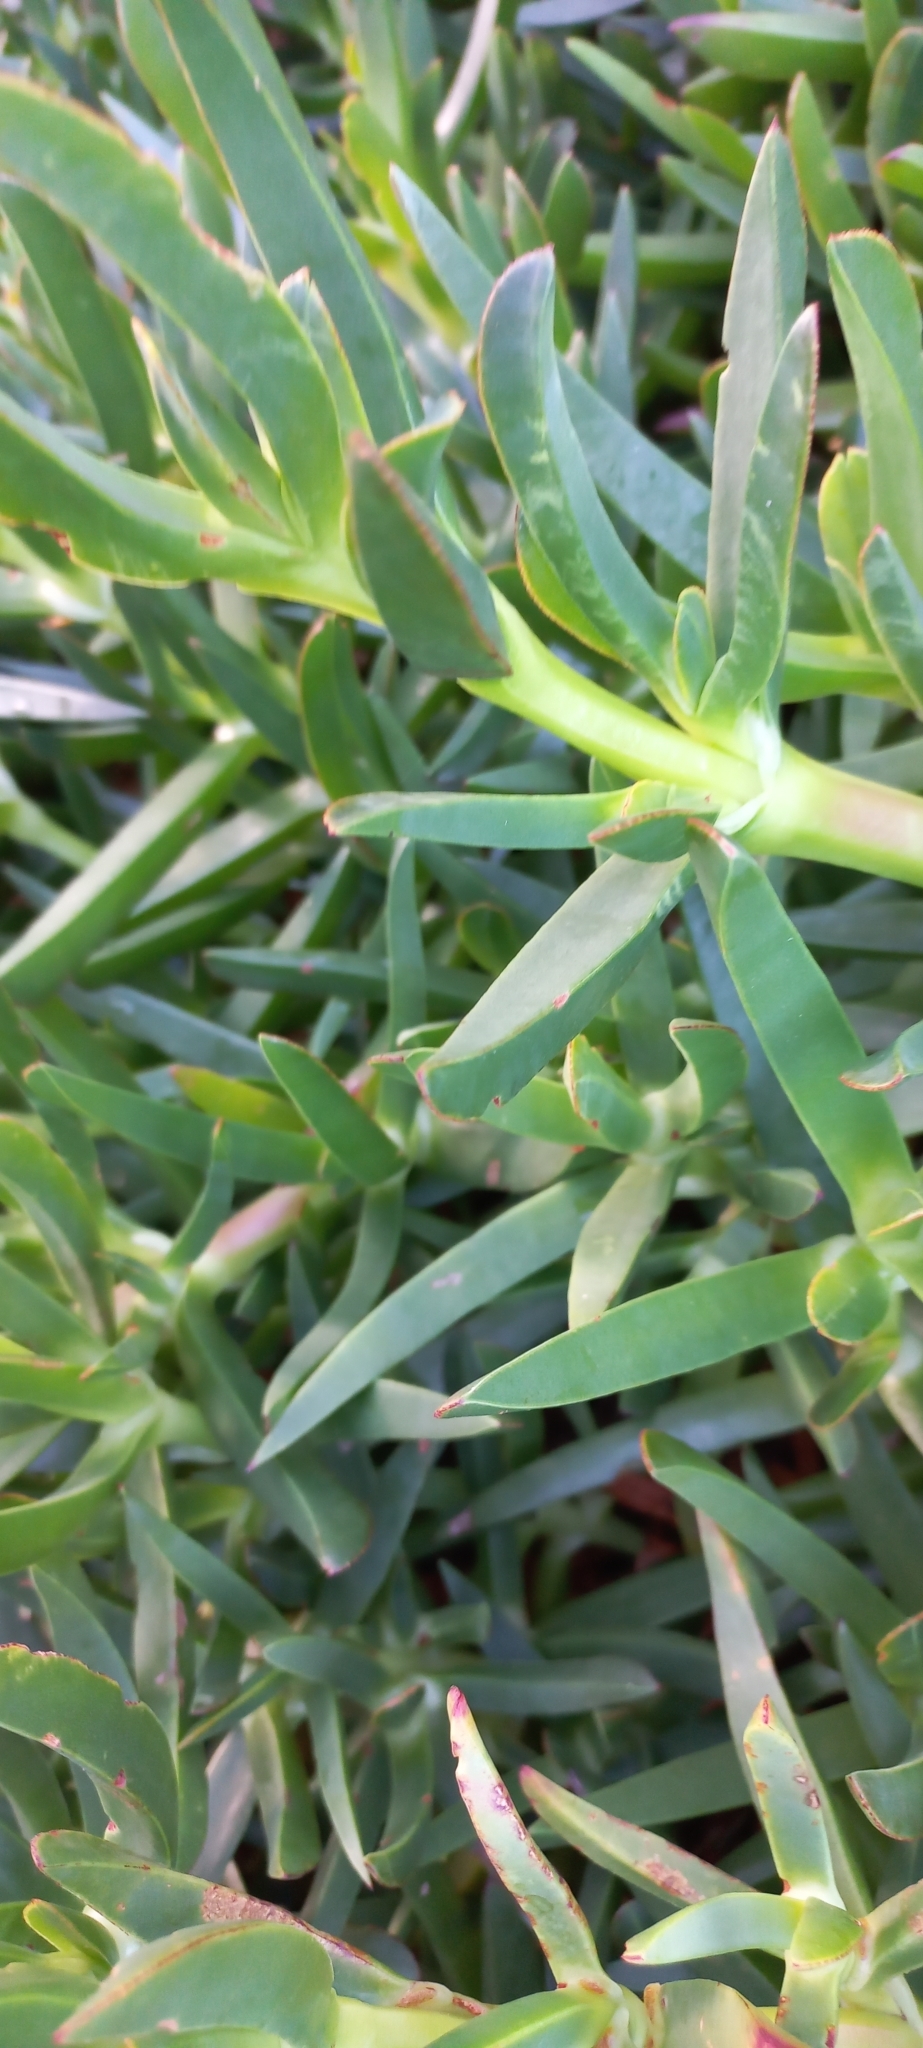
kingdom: Plantae
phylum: Tracheophyta
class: Magnoliopsida
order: Caryophyllales
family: Aizoaceae
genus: Carpobrotus
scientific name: Carpobrotus edulis
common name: Hottentot-fig
